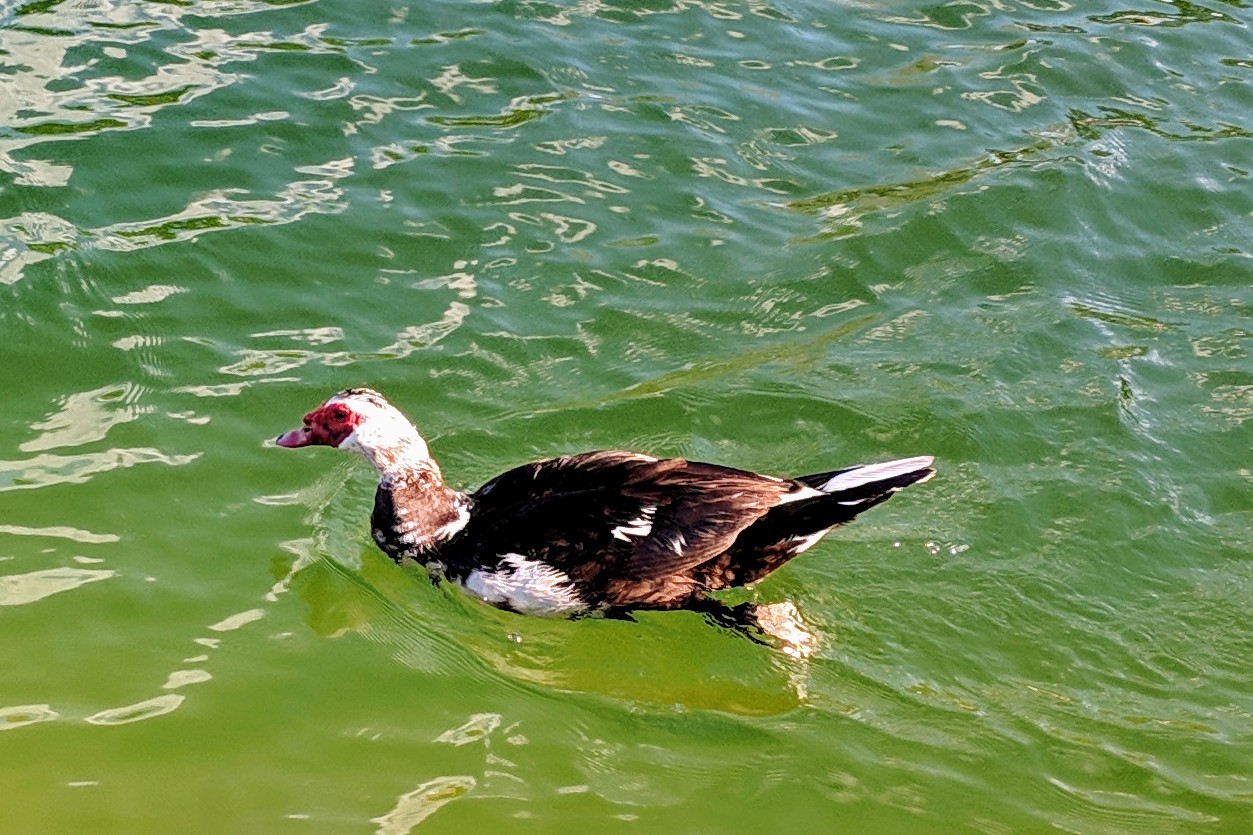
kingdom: Animalia
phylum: Chordata
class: Aves
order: Anseriformes
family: Anatidae
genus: Cairina
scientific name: Cairina moschata
